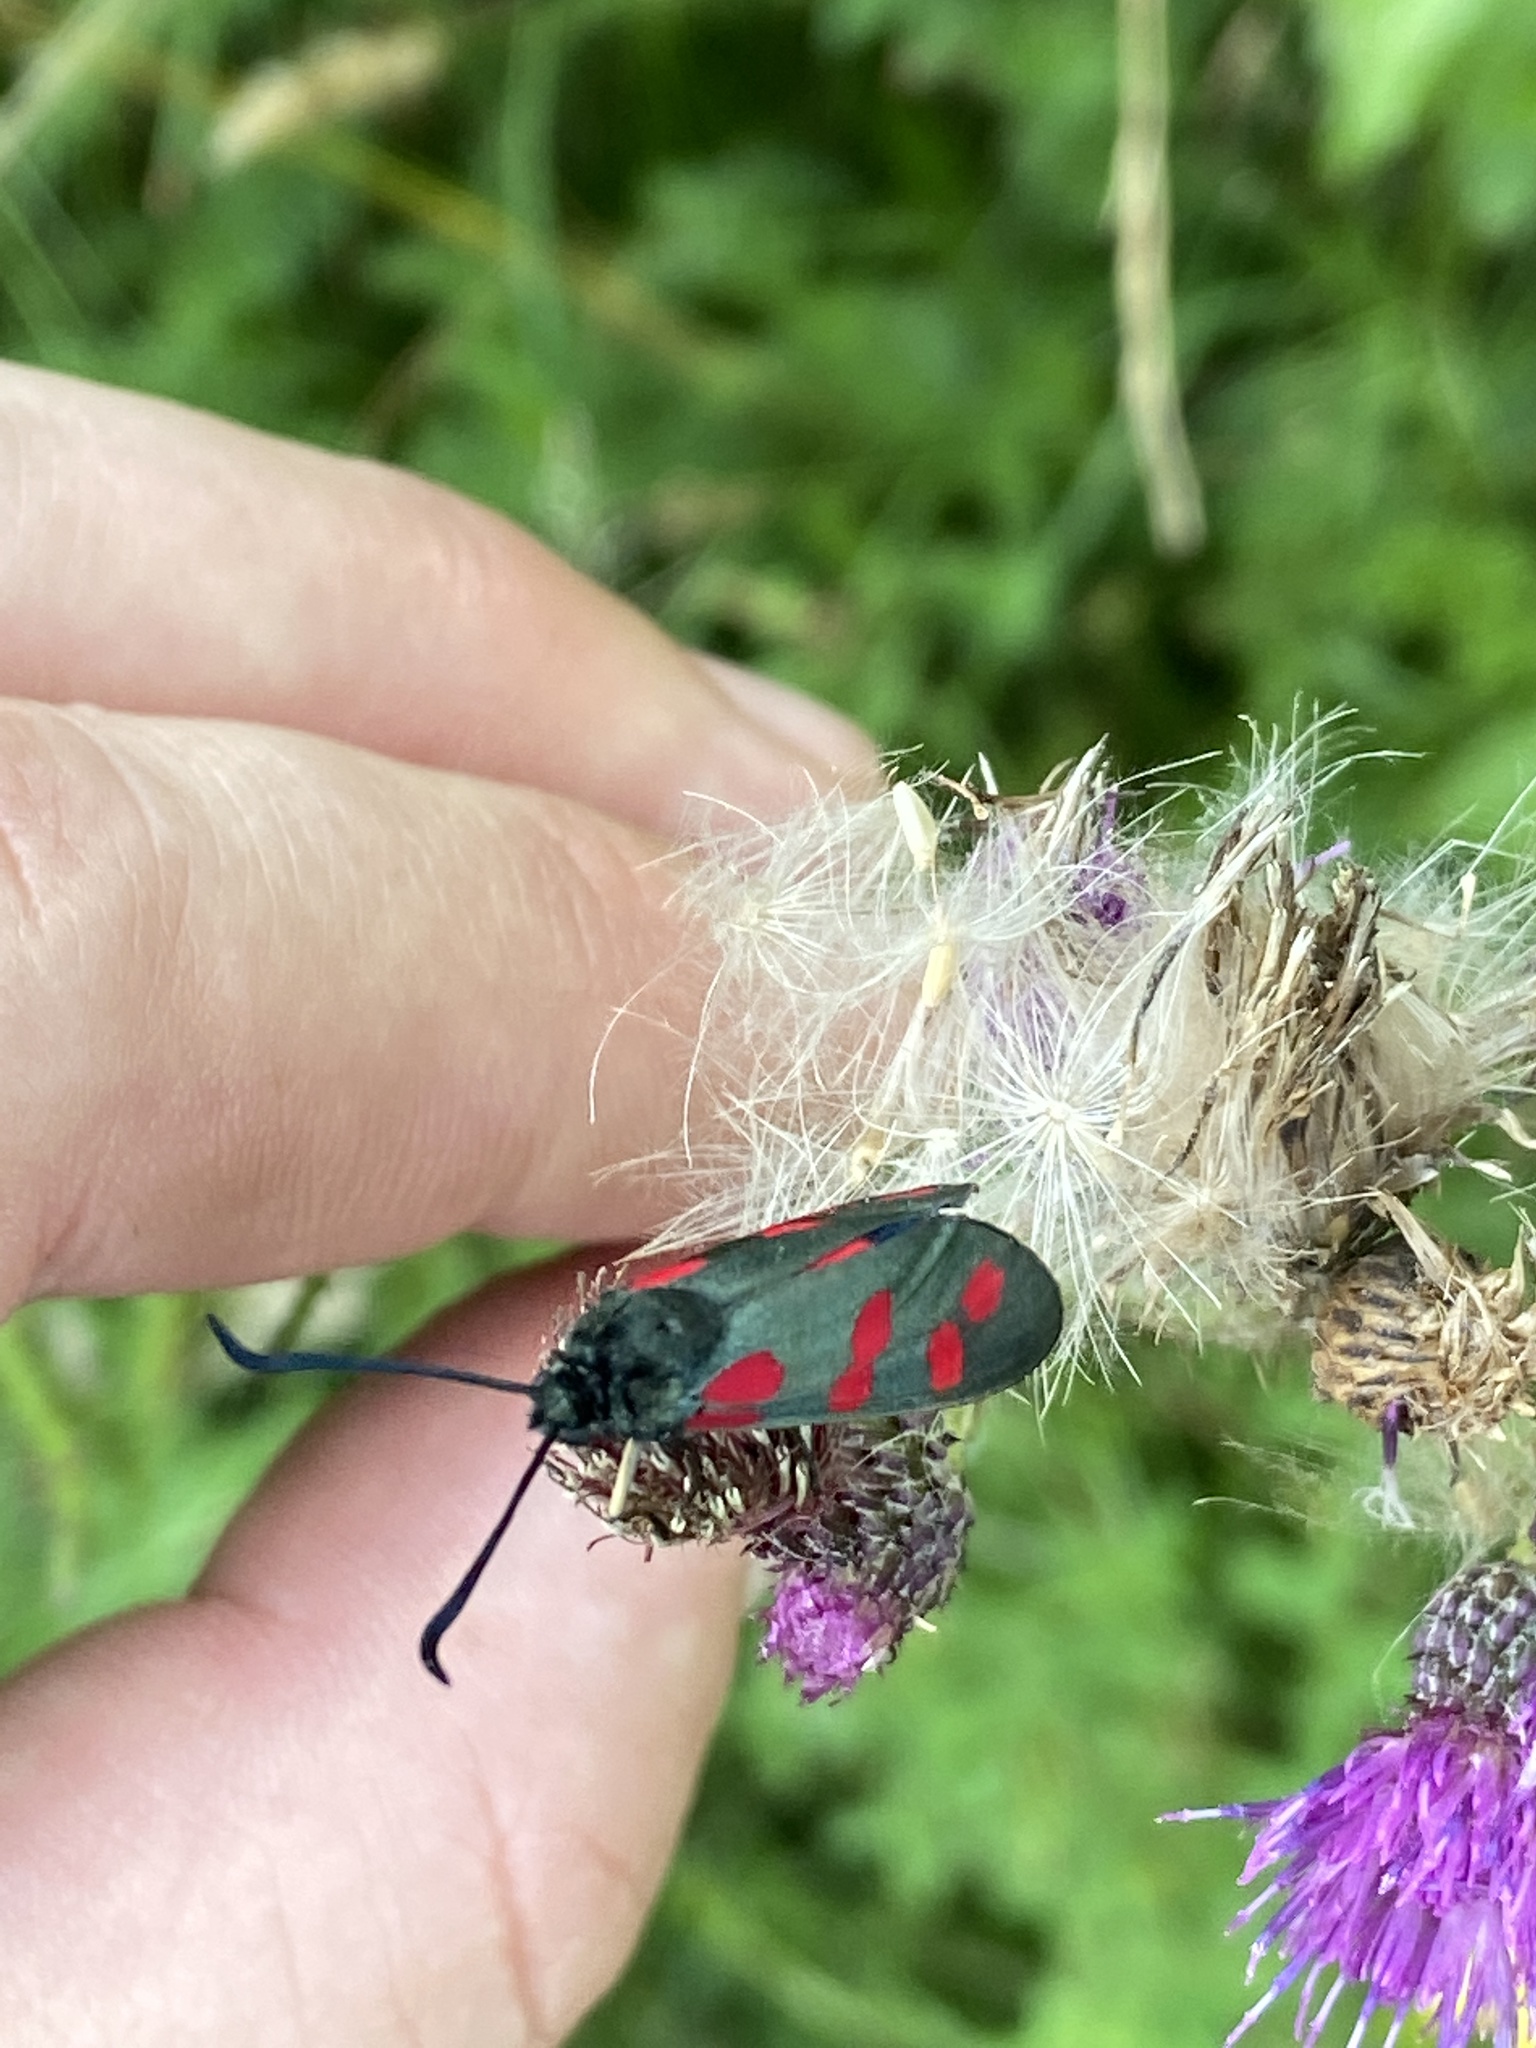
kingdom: Animalia
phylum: Arthropoda
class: Insecta
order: Lepidoptera
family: Zygaenidae
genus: Zygaena
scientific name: Zygaena filipendulae
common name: Six-spot burnet
